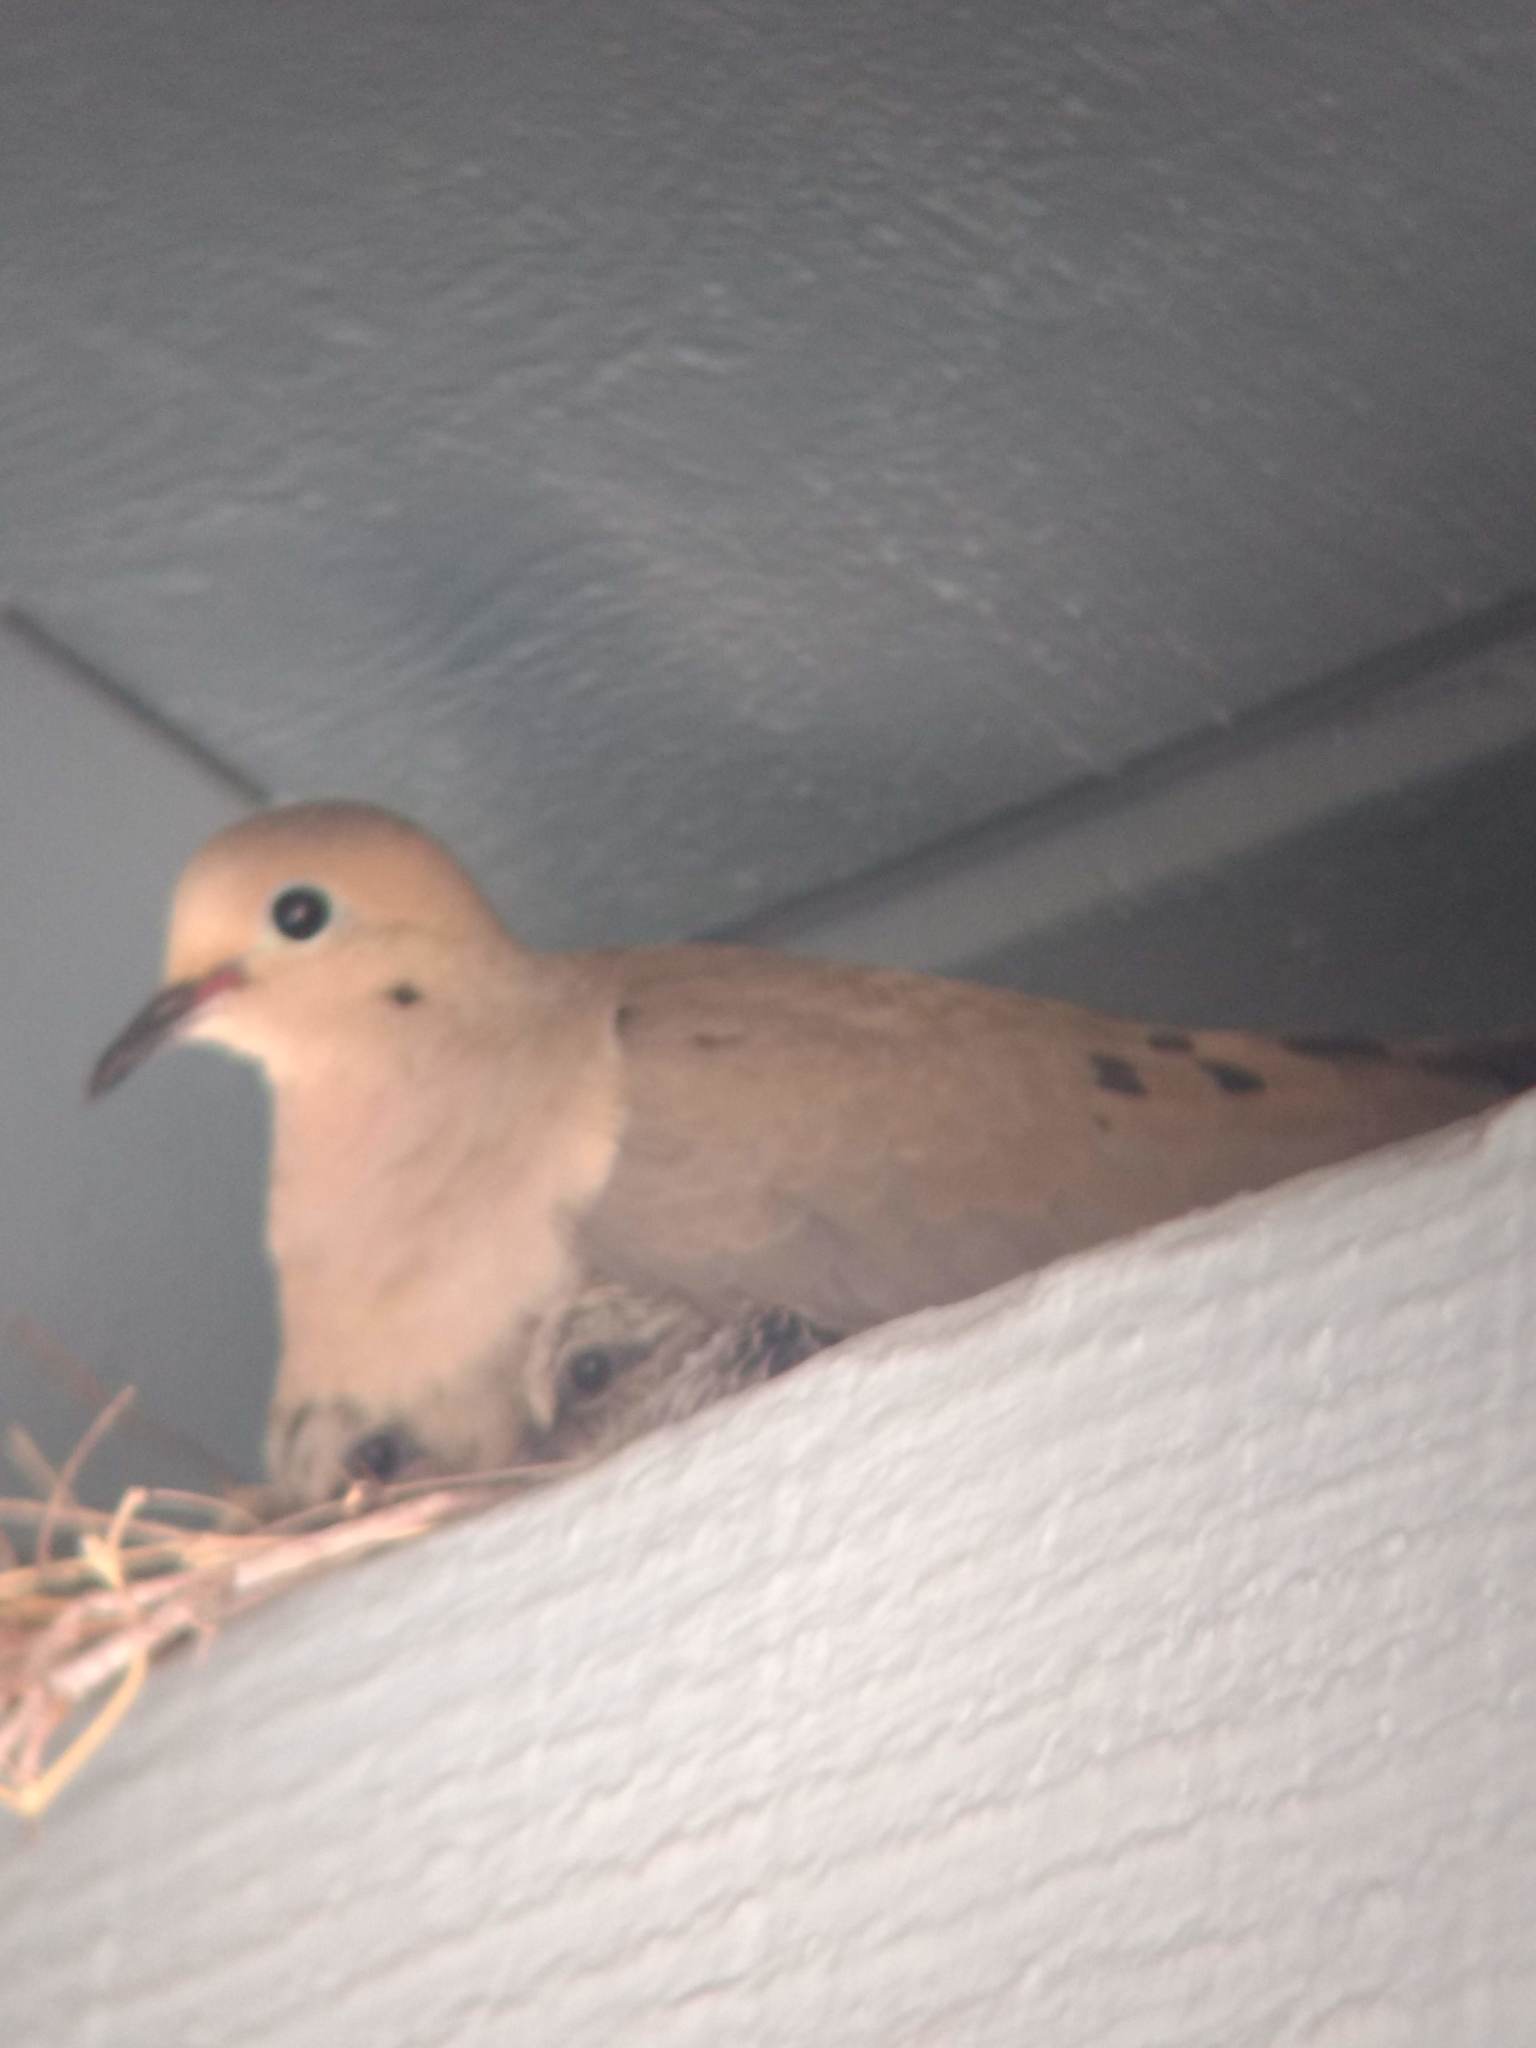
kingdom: Animalia
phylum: Chordata
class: Aves
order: Columbiformes
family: Columbidae
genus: Zenaida
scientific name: Zenaida macroura
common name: Mourning dove
